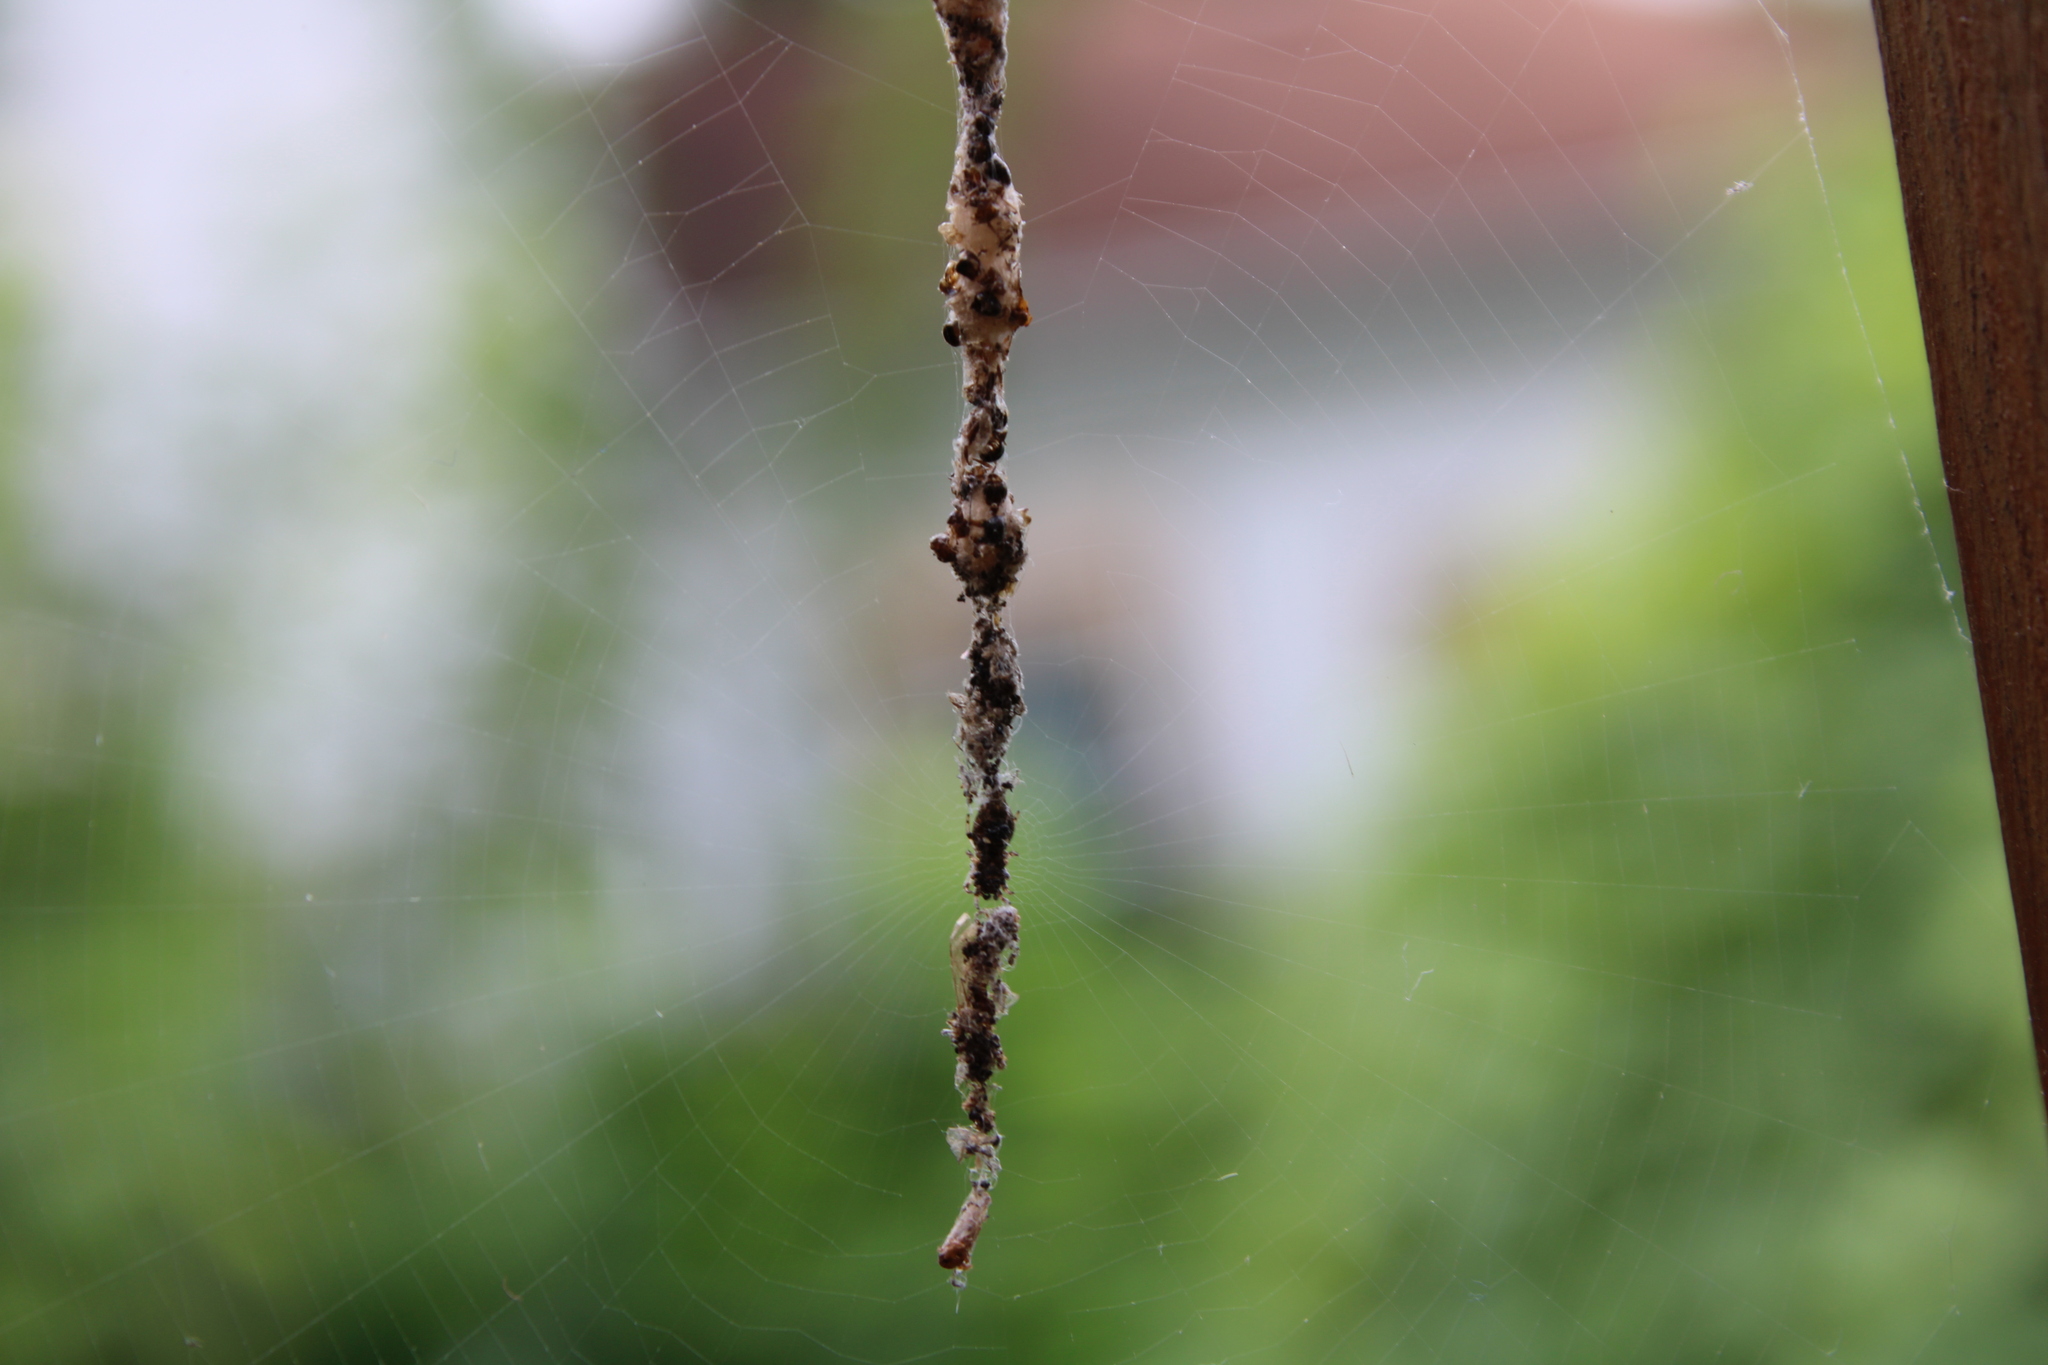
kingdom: Animalia
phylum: Arthropoda
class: Arachnida
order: Araneae
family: Araneidae
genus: Cyclosa
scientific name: Cyclosa turbinata
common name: Orb weavers
